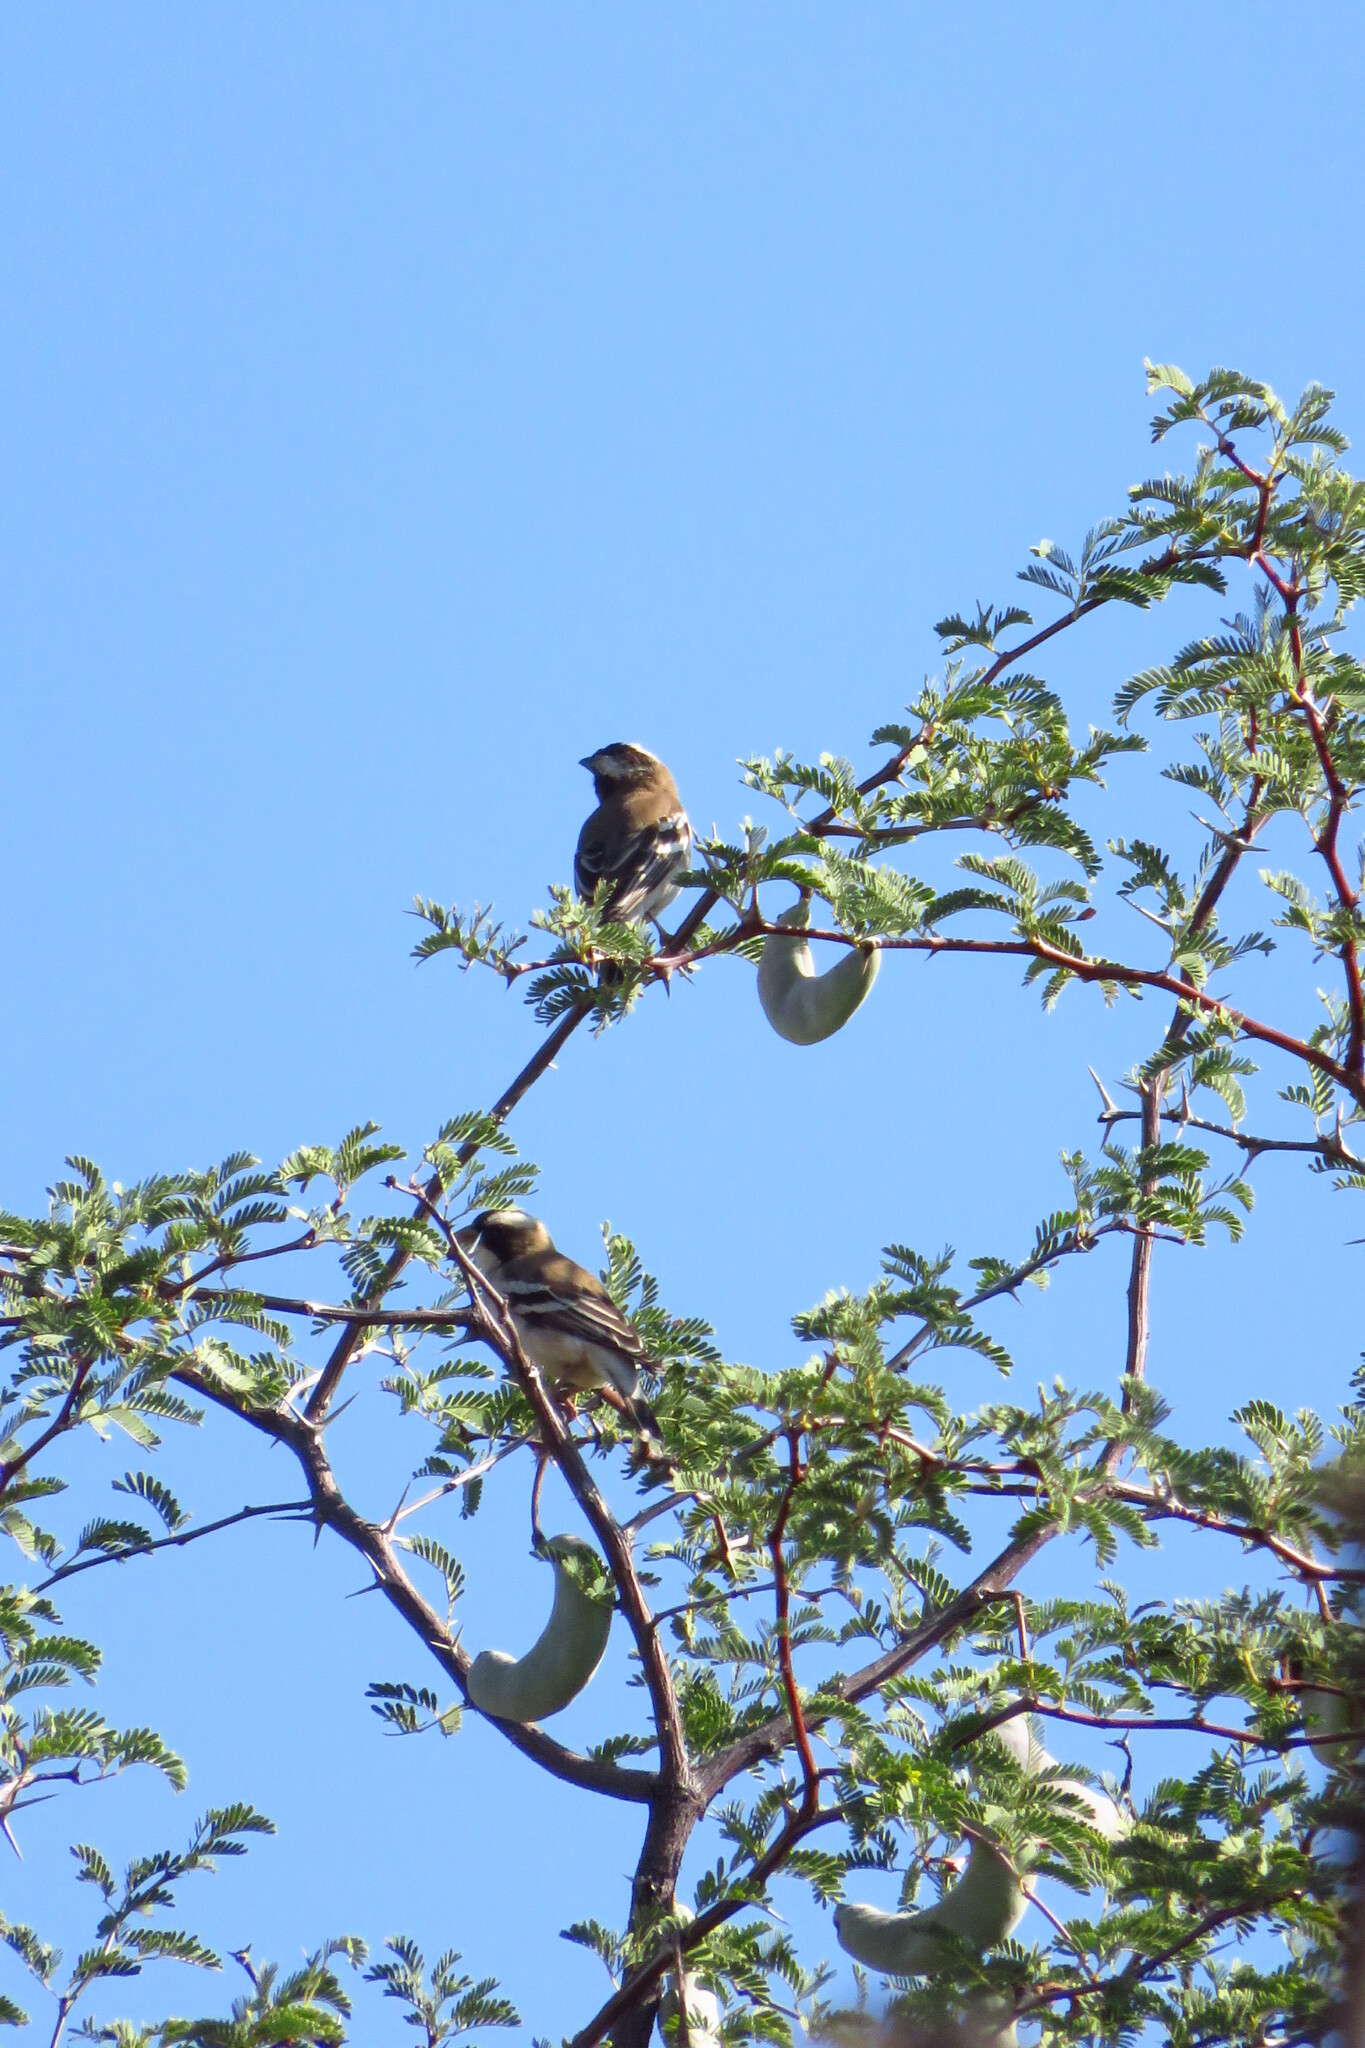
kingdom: Animalia
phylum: Chordata
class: Aves
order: Passeriformes
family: Passeridae
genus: Plocepasser
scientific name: Plocepasser mahali
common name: White-browed sparrow-weaver
